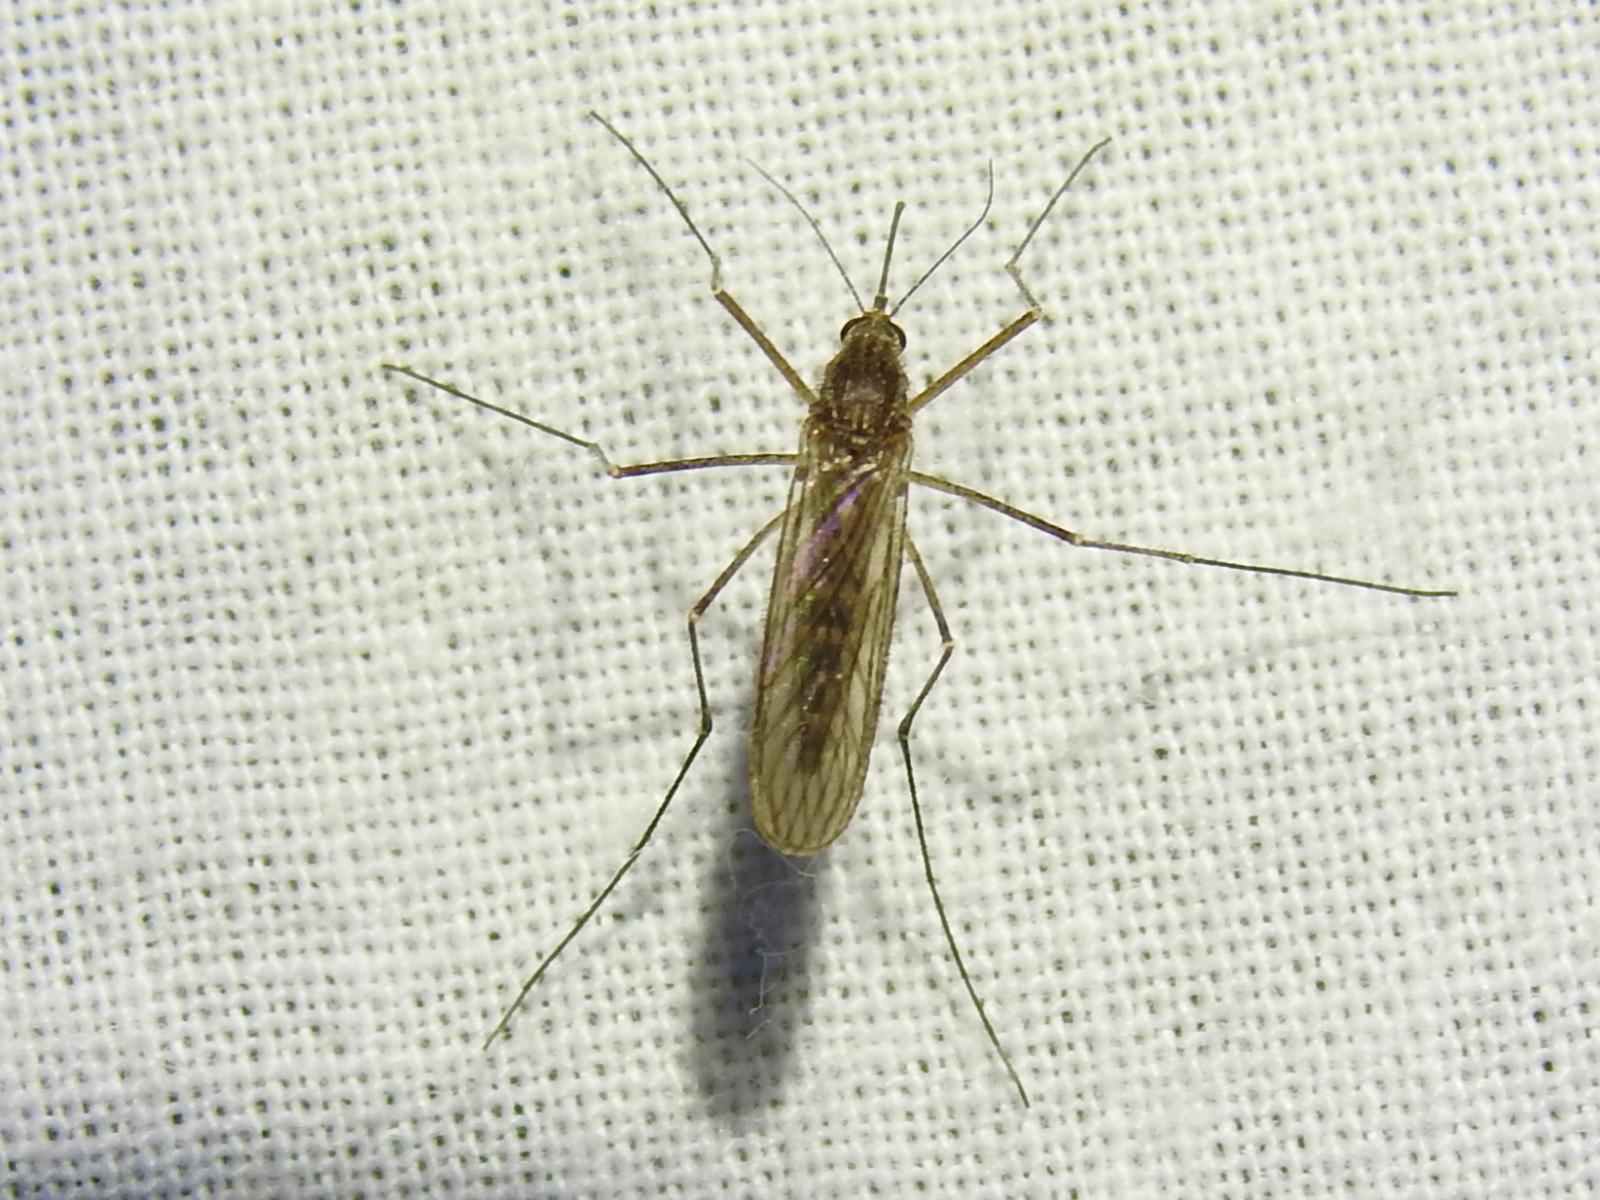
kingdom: Animalia
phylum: Arthropoda
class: Insecta
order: Diptera
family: Culicidae
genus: Culiseta
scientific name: Culiseta inornata
